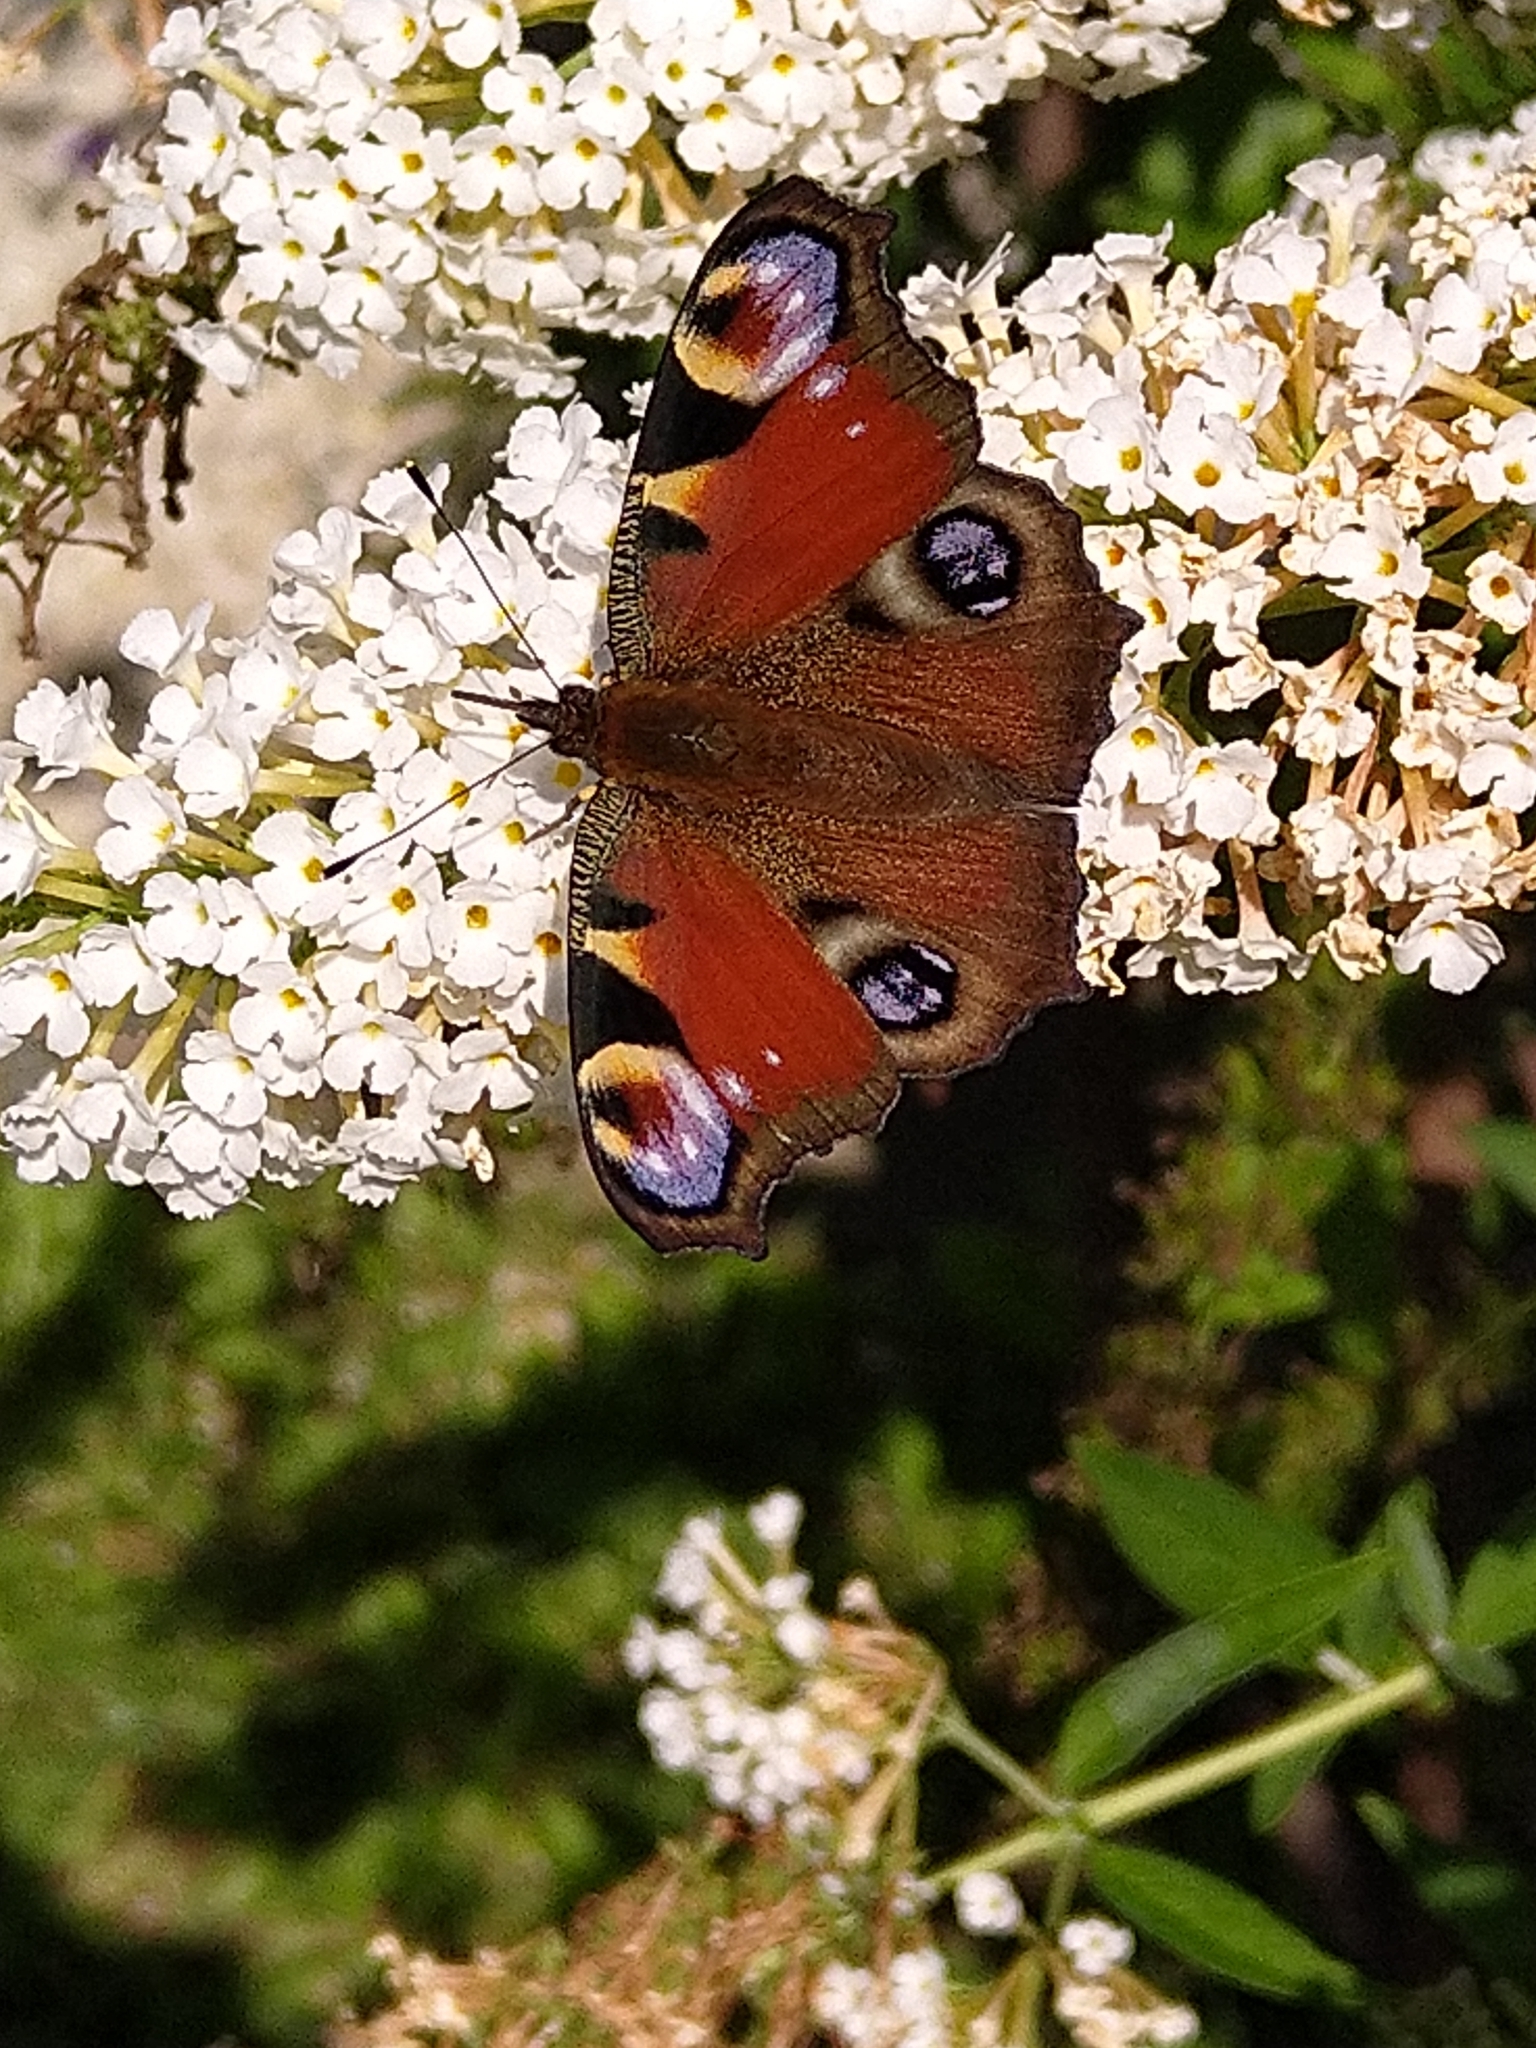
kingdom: Animalia
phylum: Arthropoda
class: Insecta
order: Lepidoptera
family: Nymphalidae
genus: Aglais
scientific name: Aglais io
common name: Peacock
